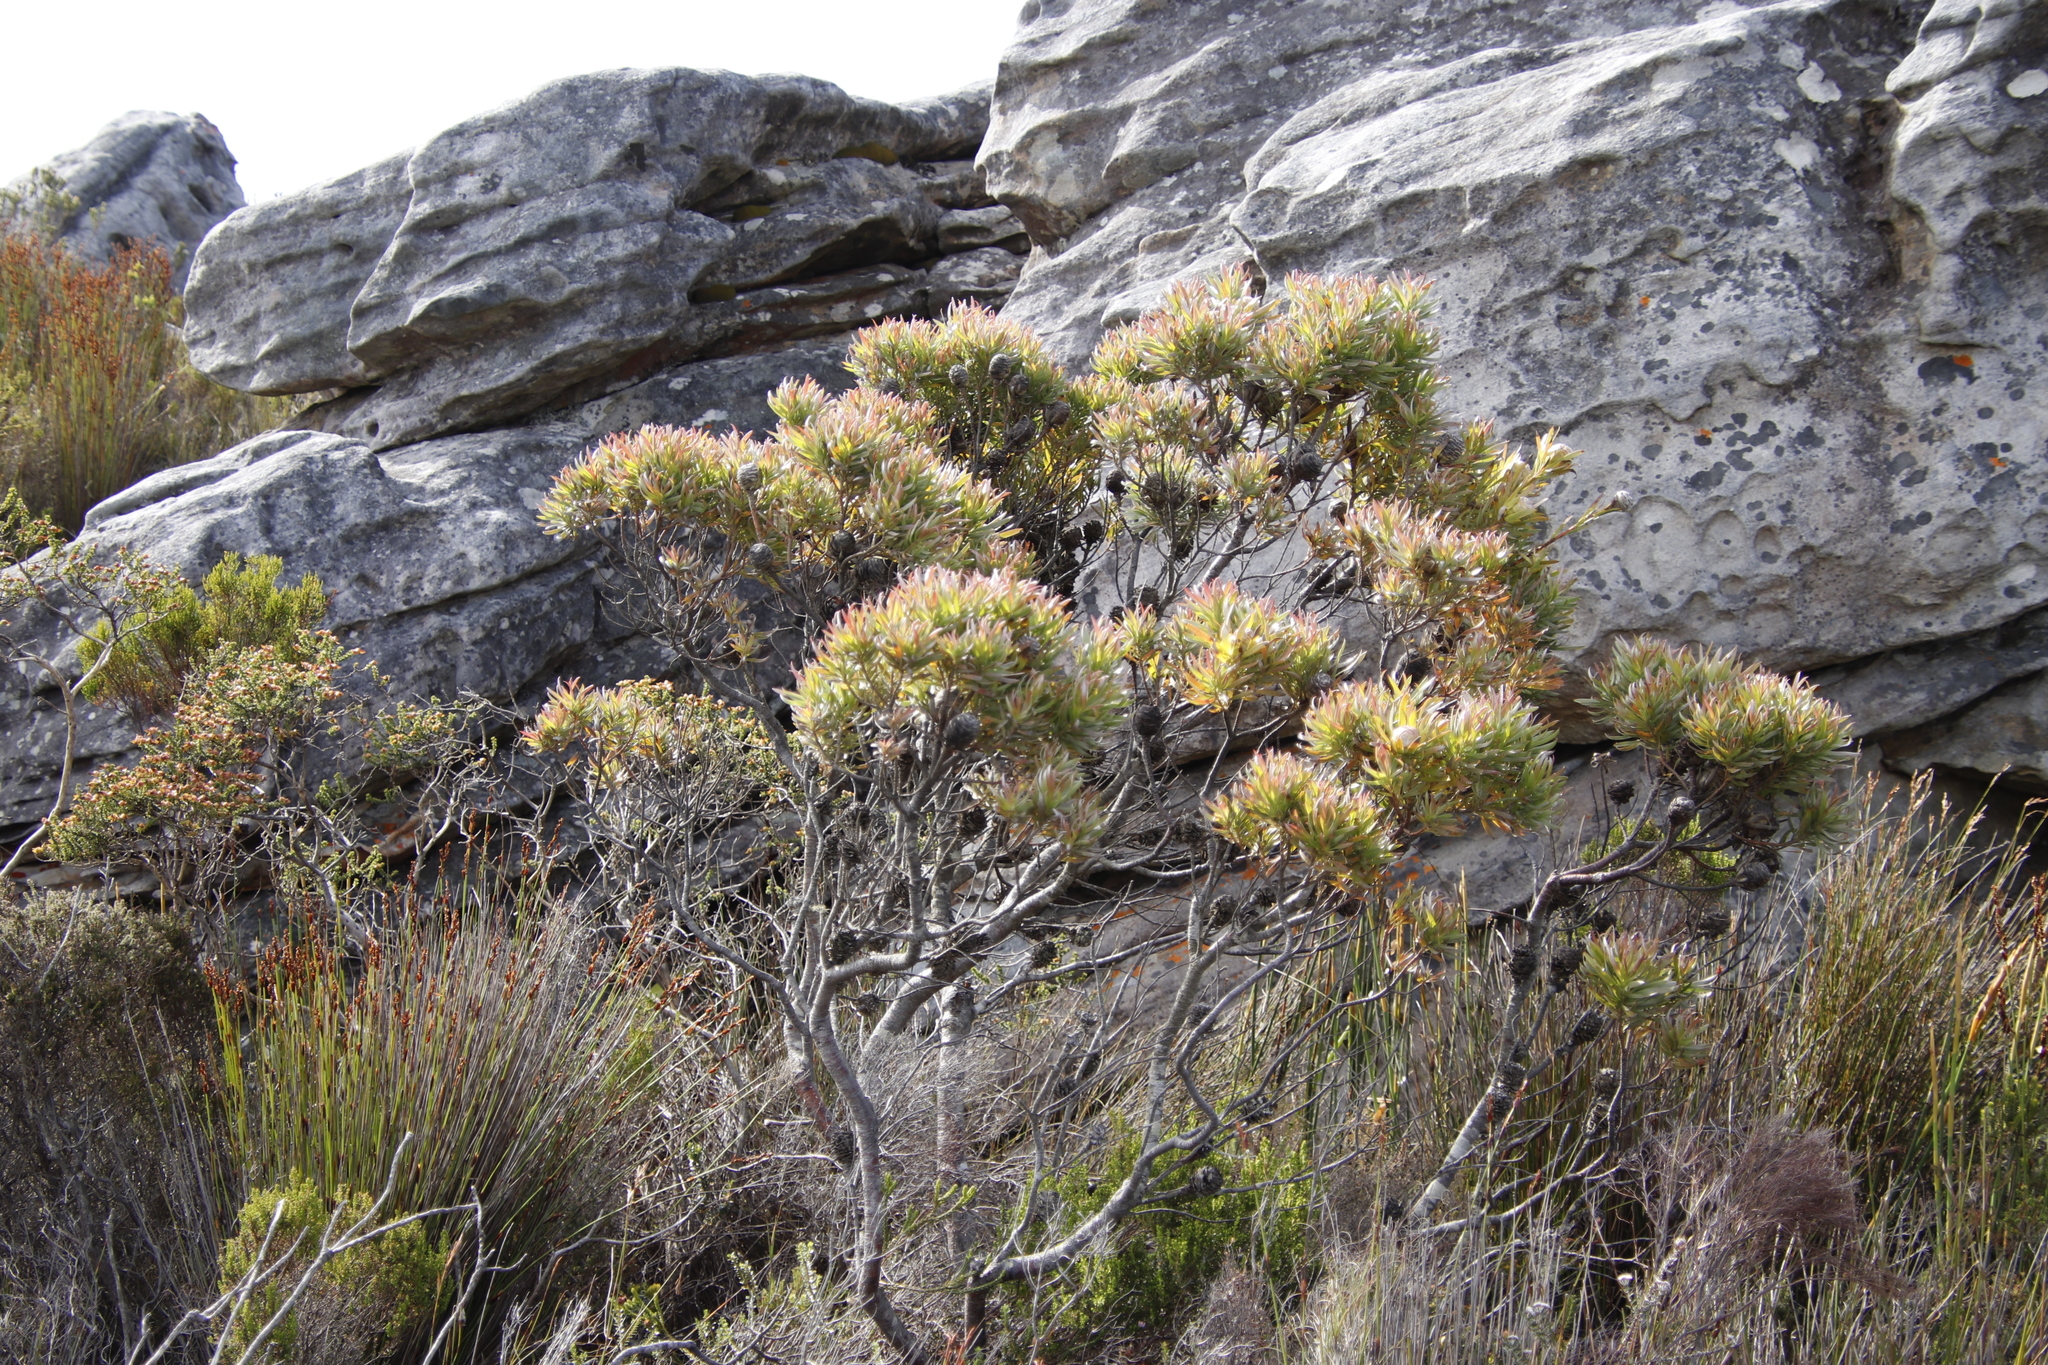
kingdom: Plantae
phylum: Tracheophyta
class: Magnoliopsida
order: Proteales
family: Proteaceae
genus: Leucadendron
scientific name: Leucadendron xanthoconus
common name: Sickle-leaf conebush
